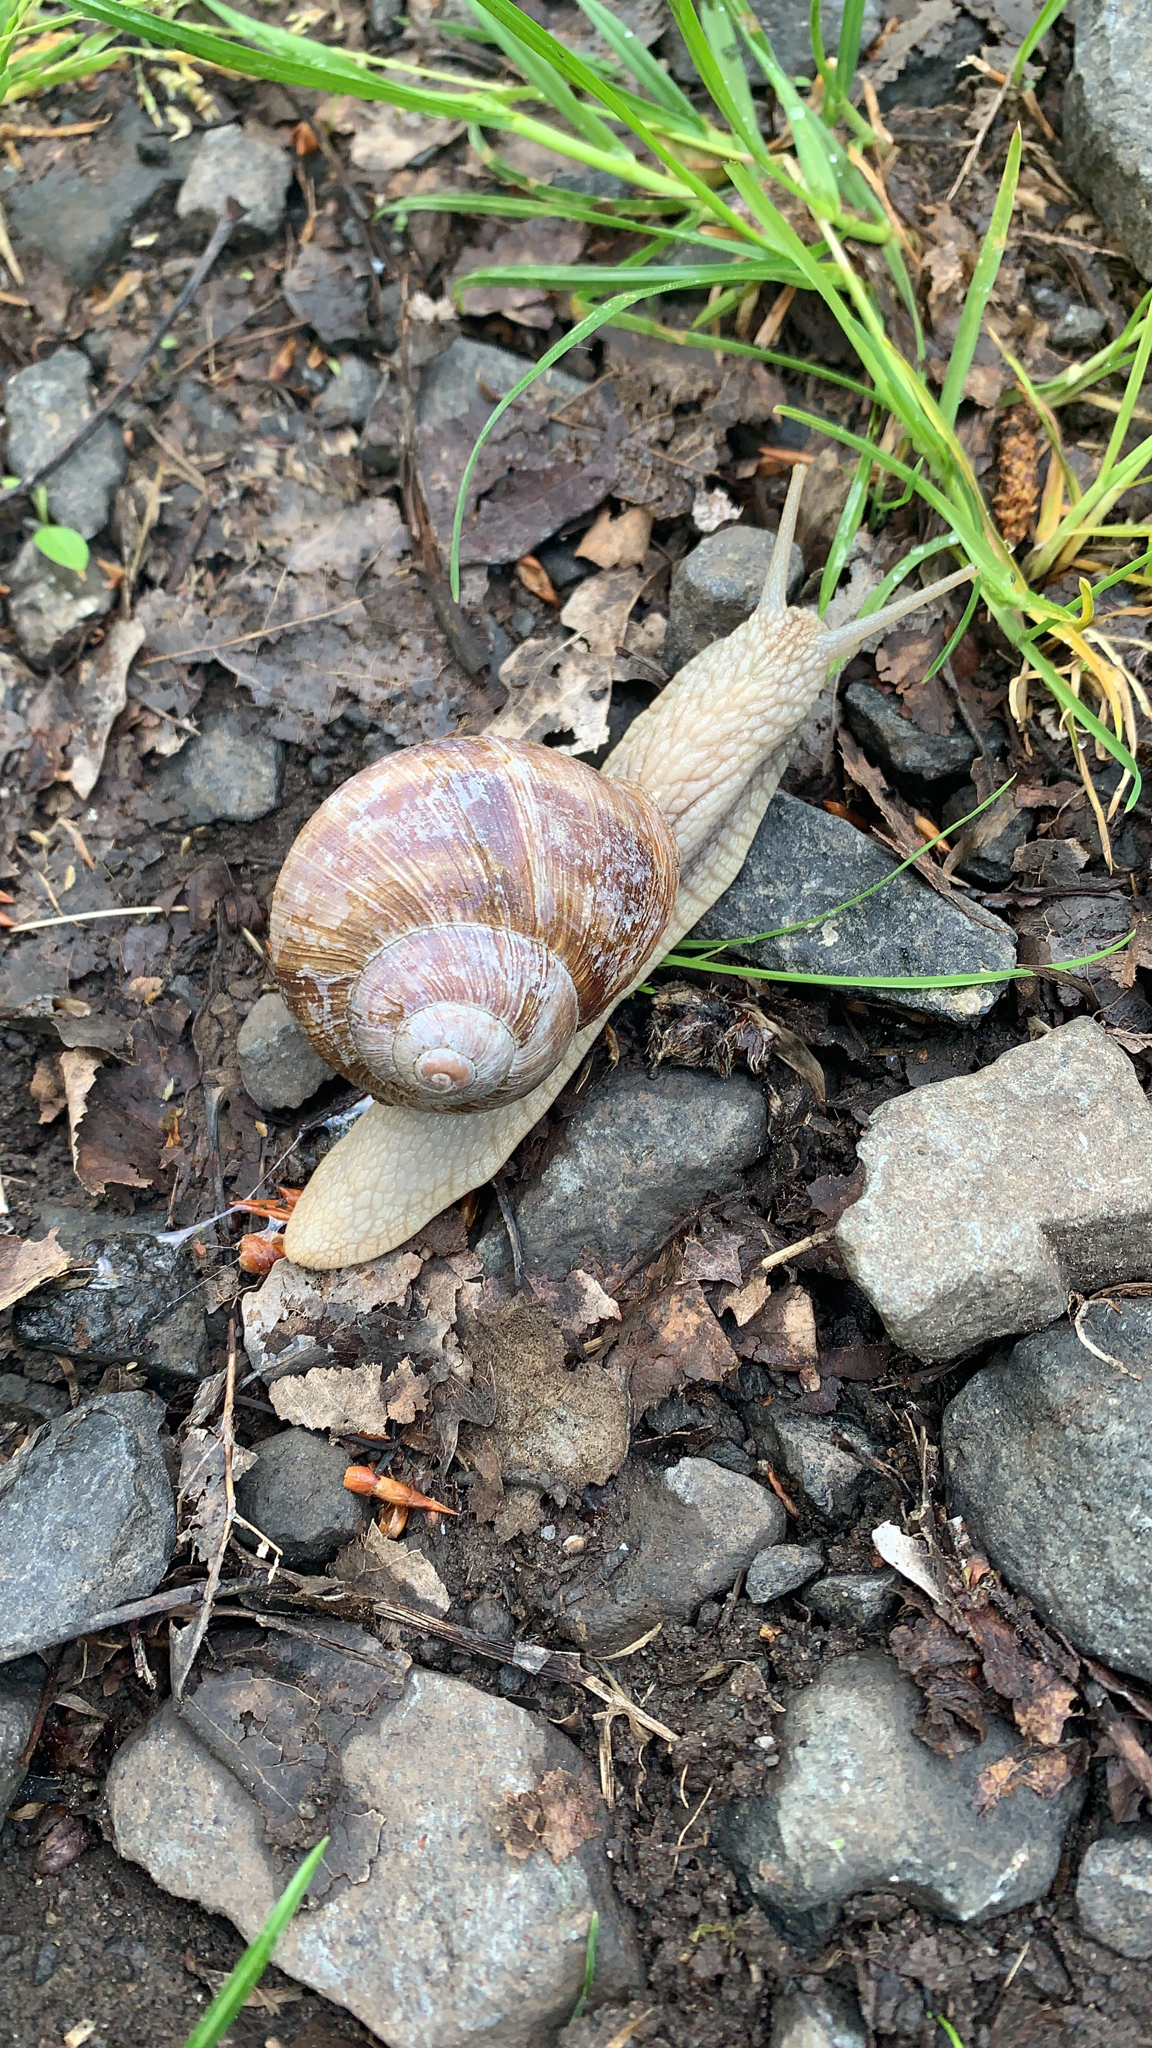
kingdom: Animalia
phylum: Mollusca
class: Gastropoda
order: Stylommatophora
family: Helicidae
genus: Helix
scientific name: Helix pomatia
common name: Roman snail
